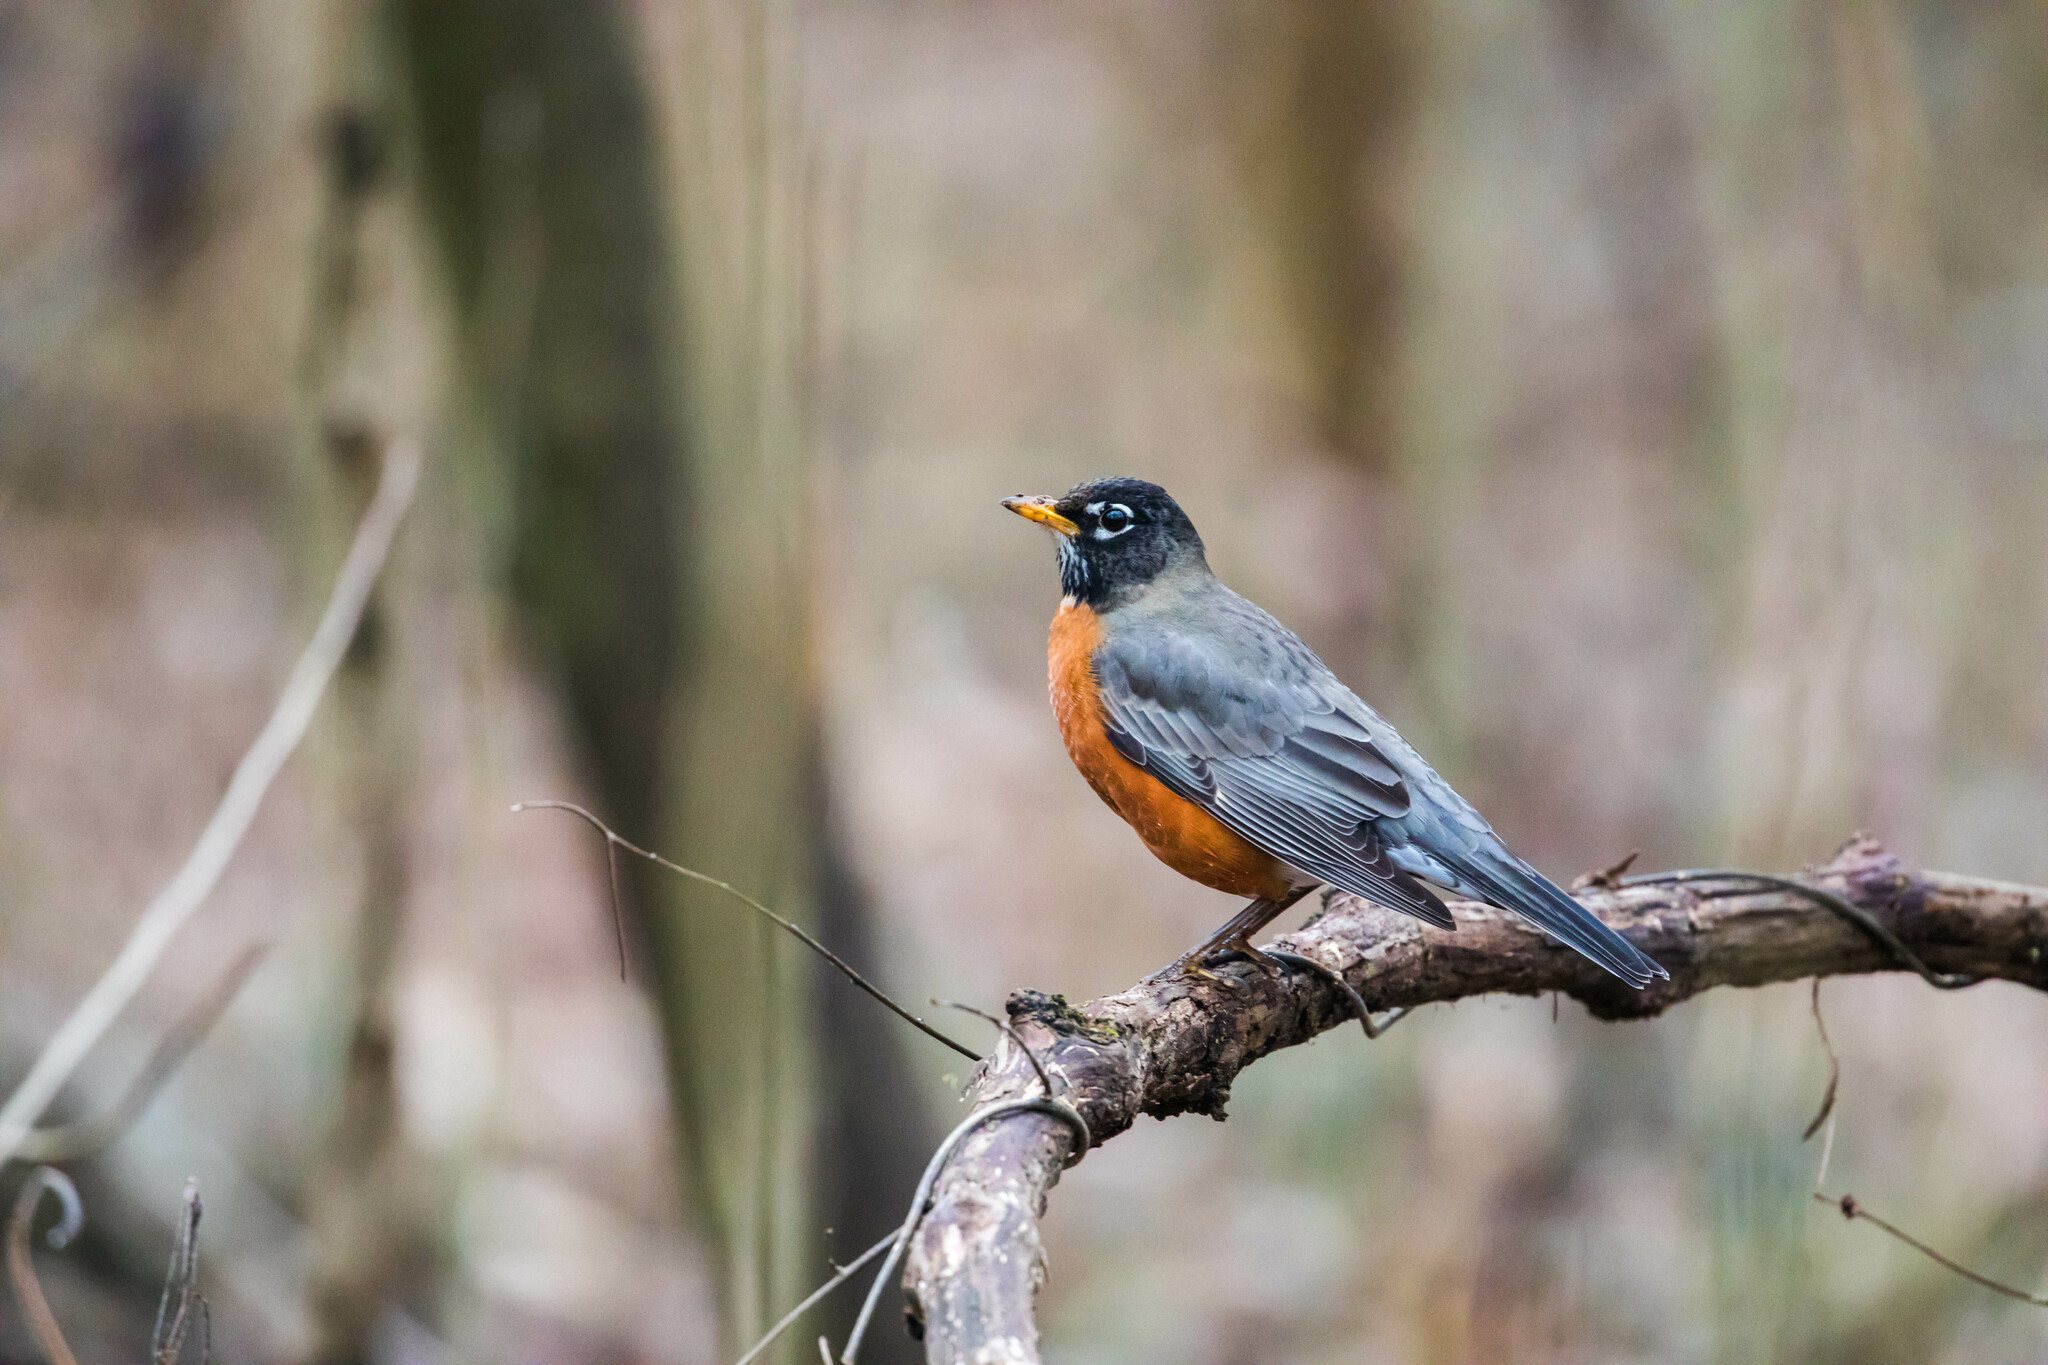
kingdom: Animalia
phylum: Chordata
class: Aves
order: Passeriformes
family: Turdidae
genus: Turdus
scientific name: Turdus migratorius
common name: American robin
